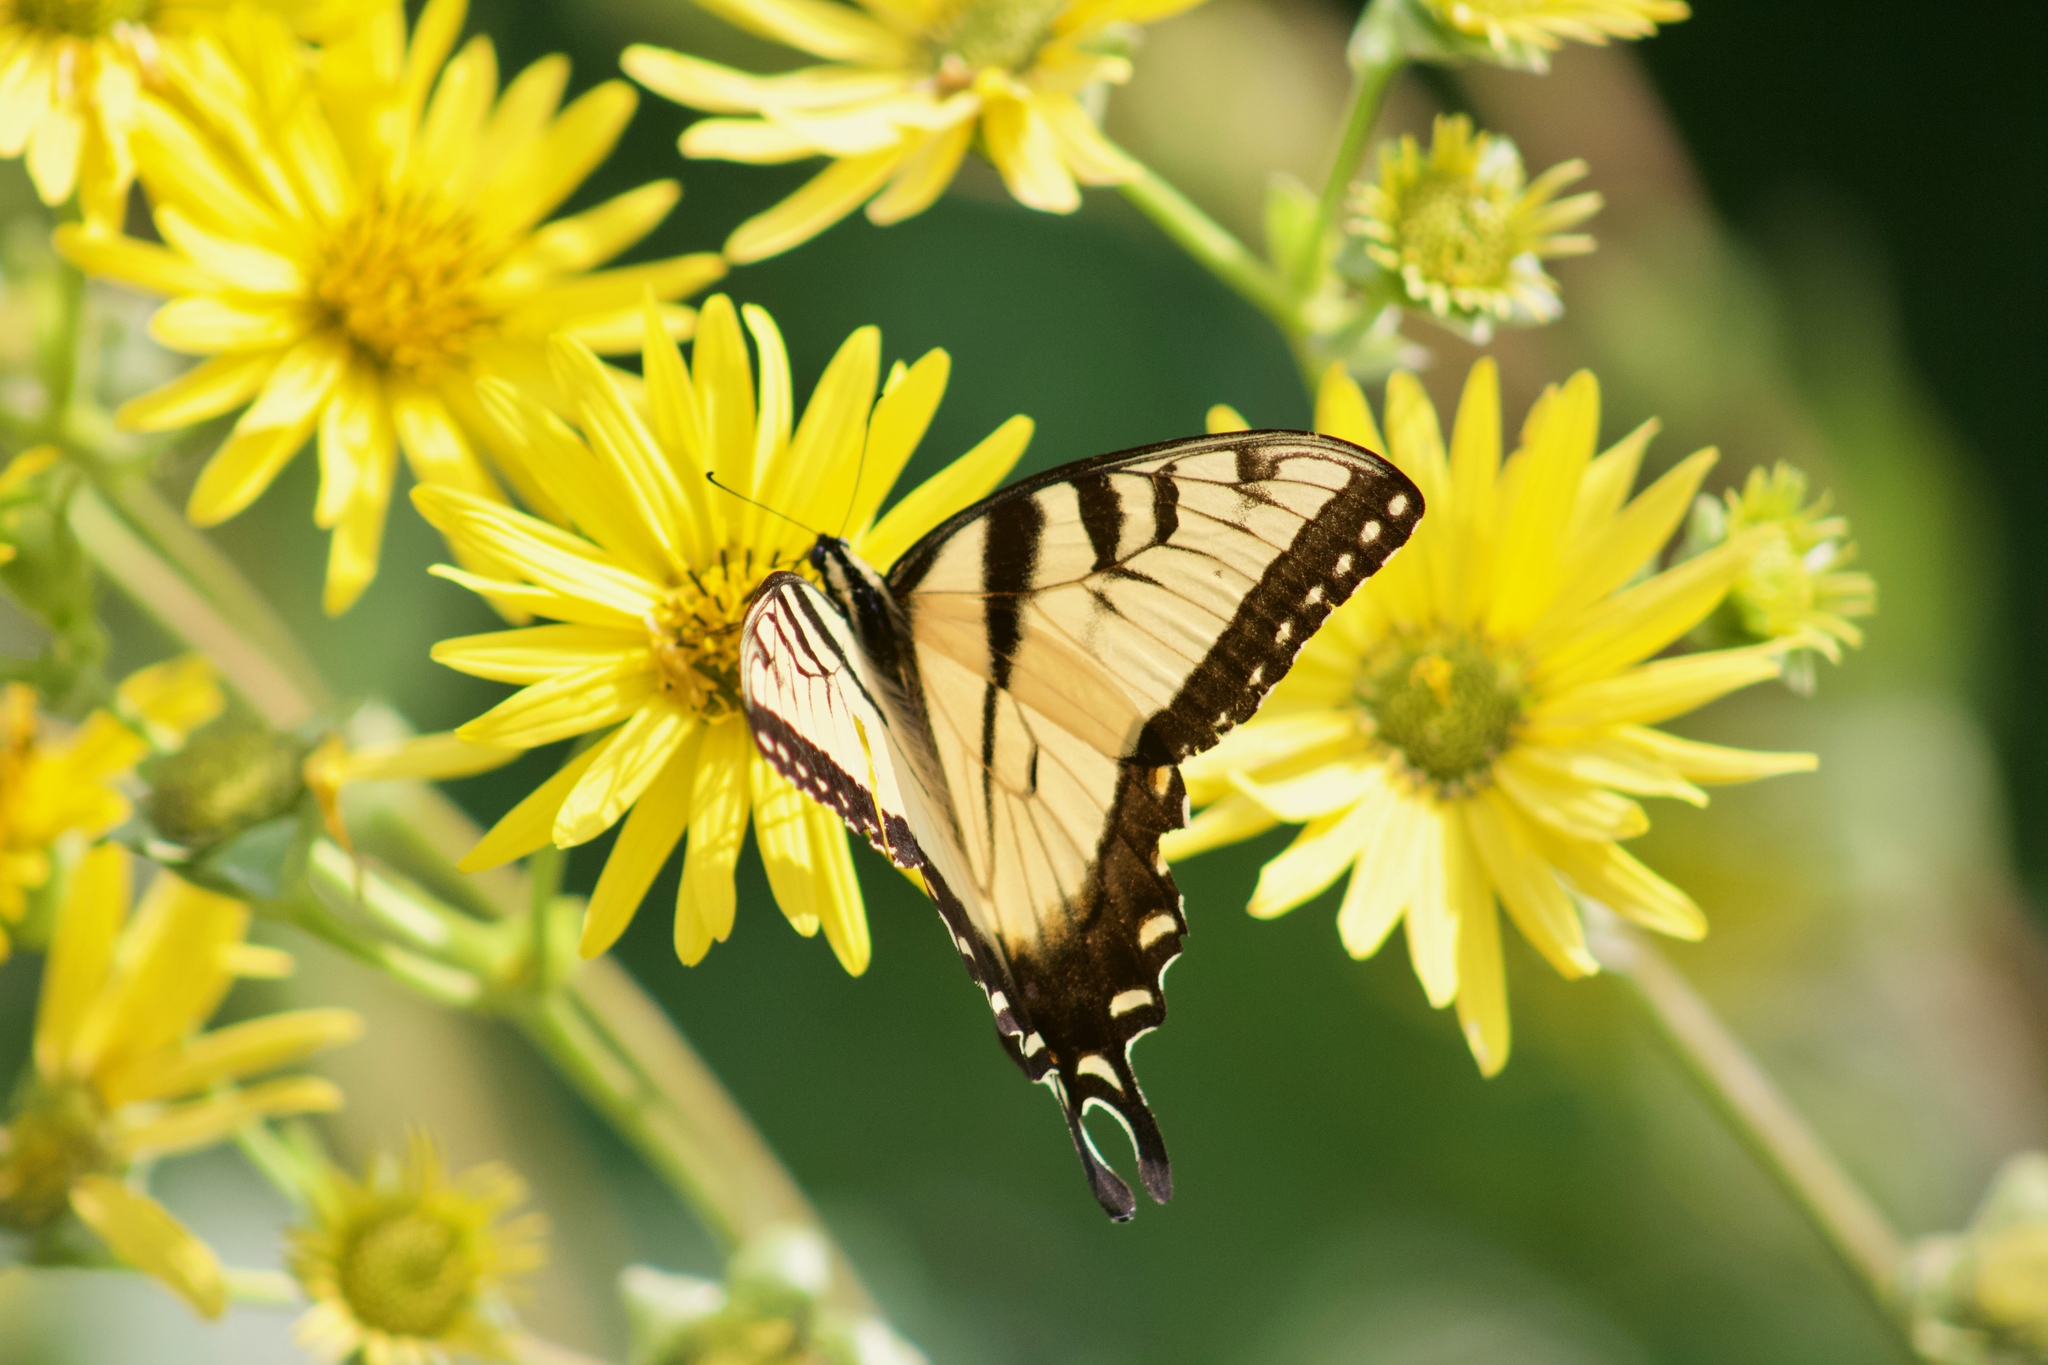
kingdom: Animalia
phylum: Arthropoda
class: Insecta
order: Lepidoptera
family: Papilionidae
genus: Papilio
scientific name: Papilio glaucus
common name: Tiger swallowtail
